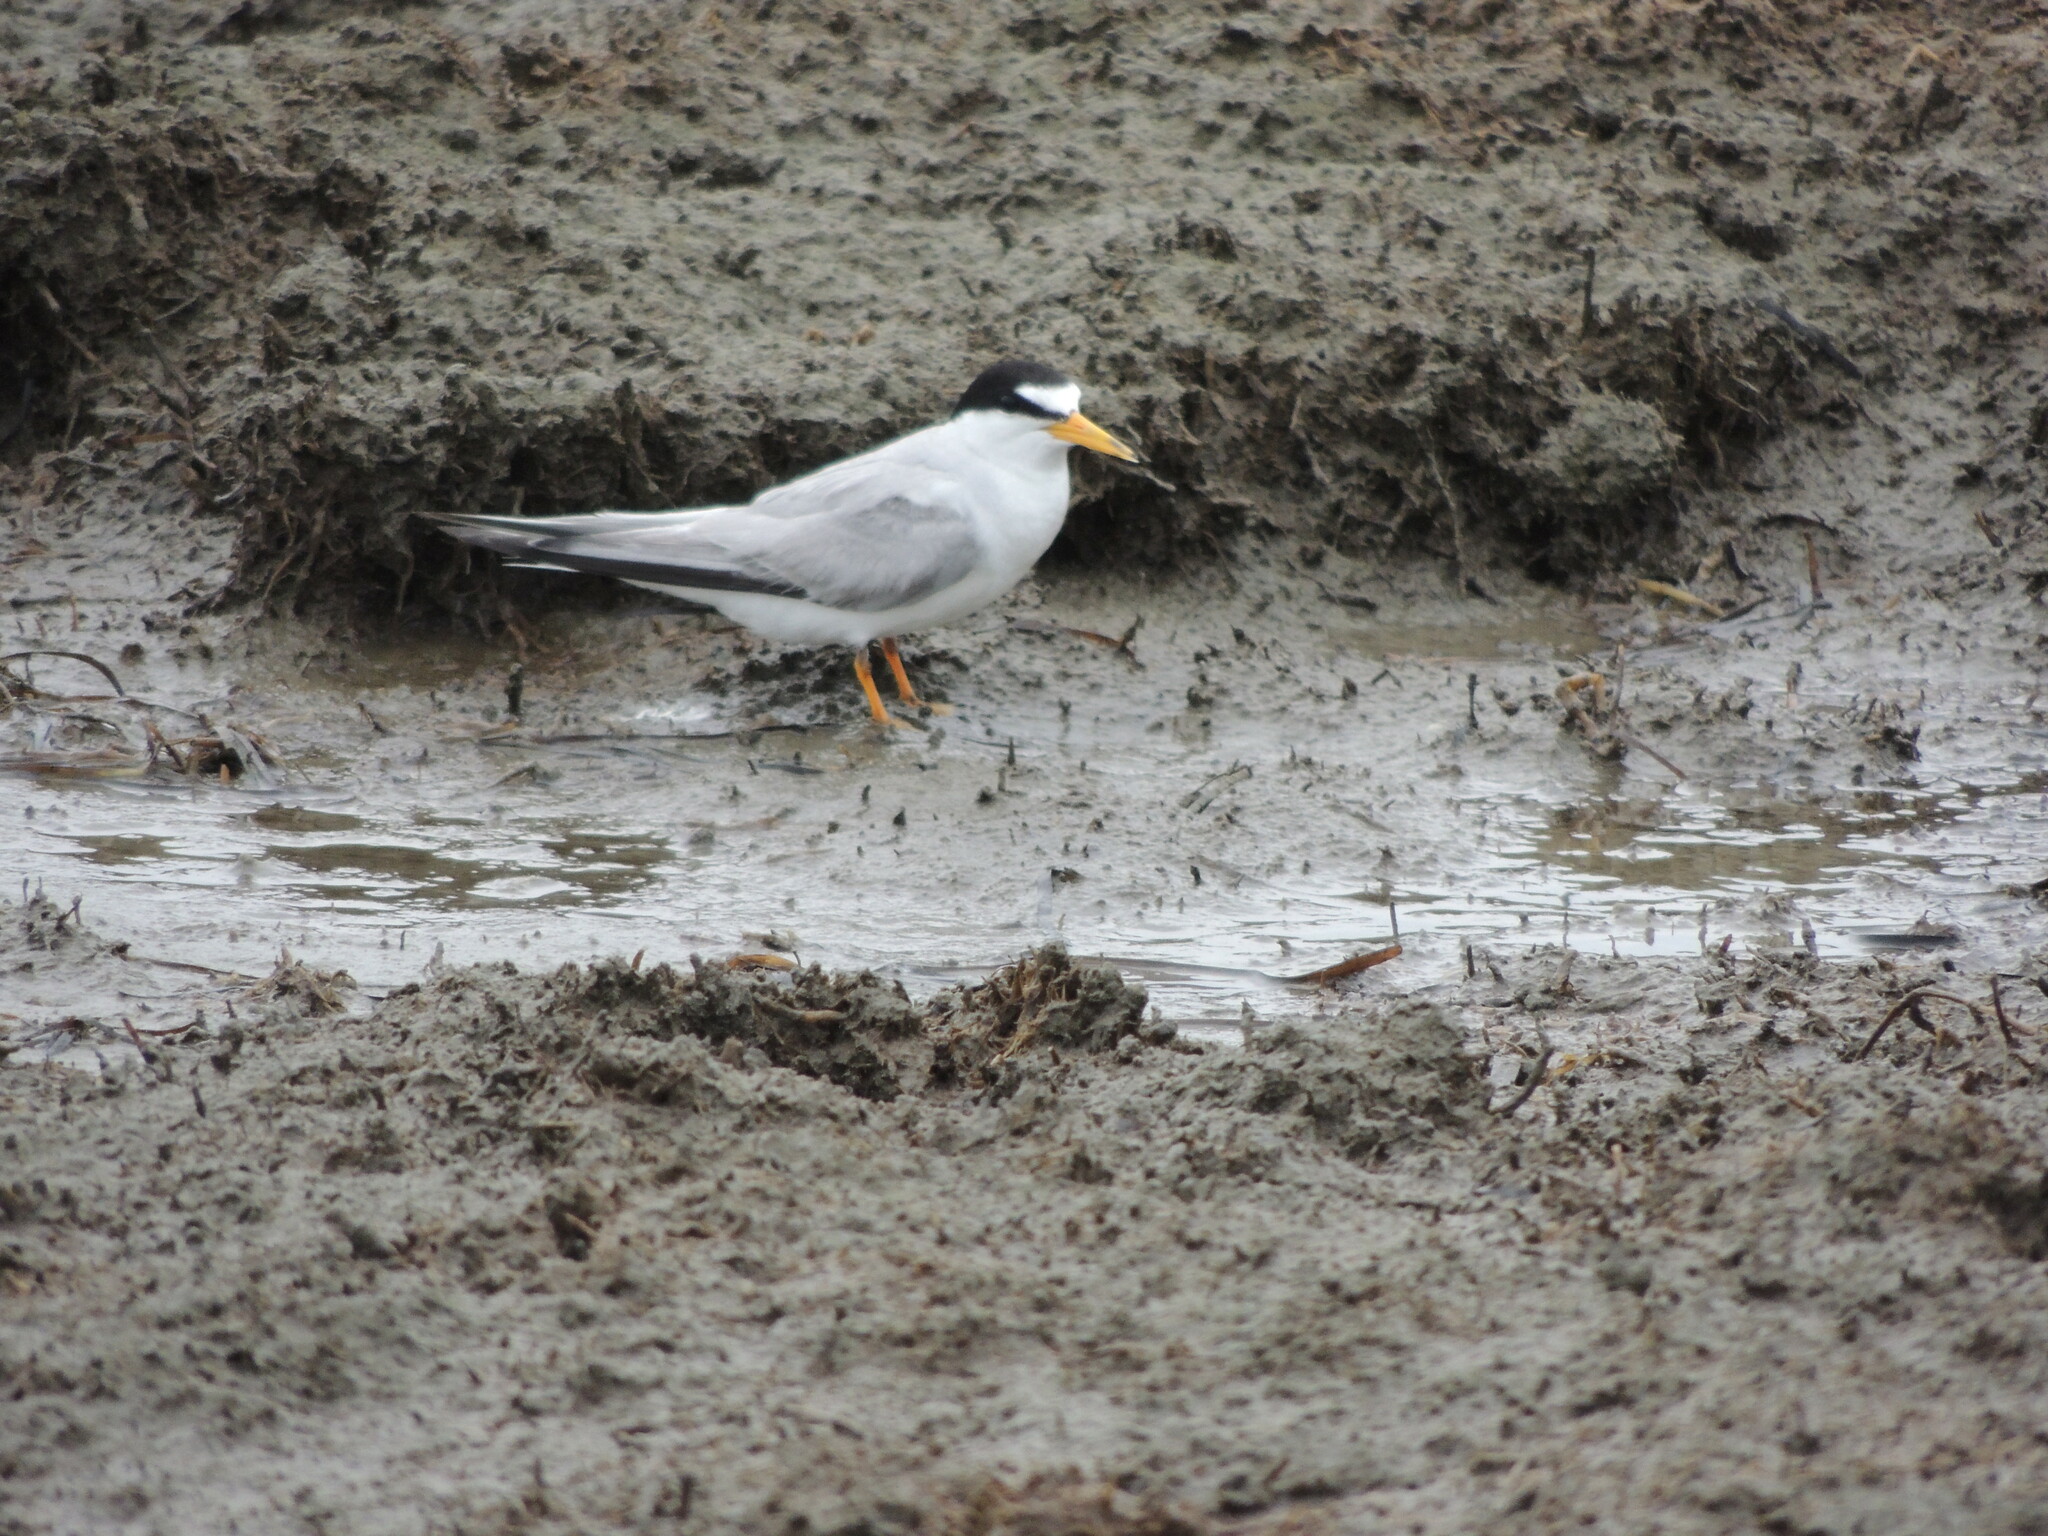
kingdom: Animalia
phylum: Chordata
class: Aves
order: Charadriiformes
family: Laridae
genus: Sternula
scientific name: Sternula antillarum
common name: Least tern
